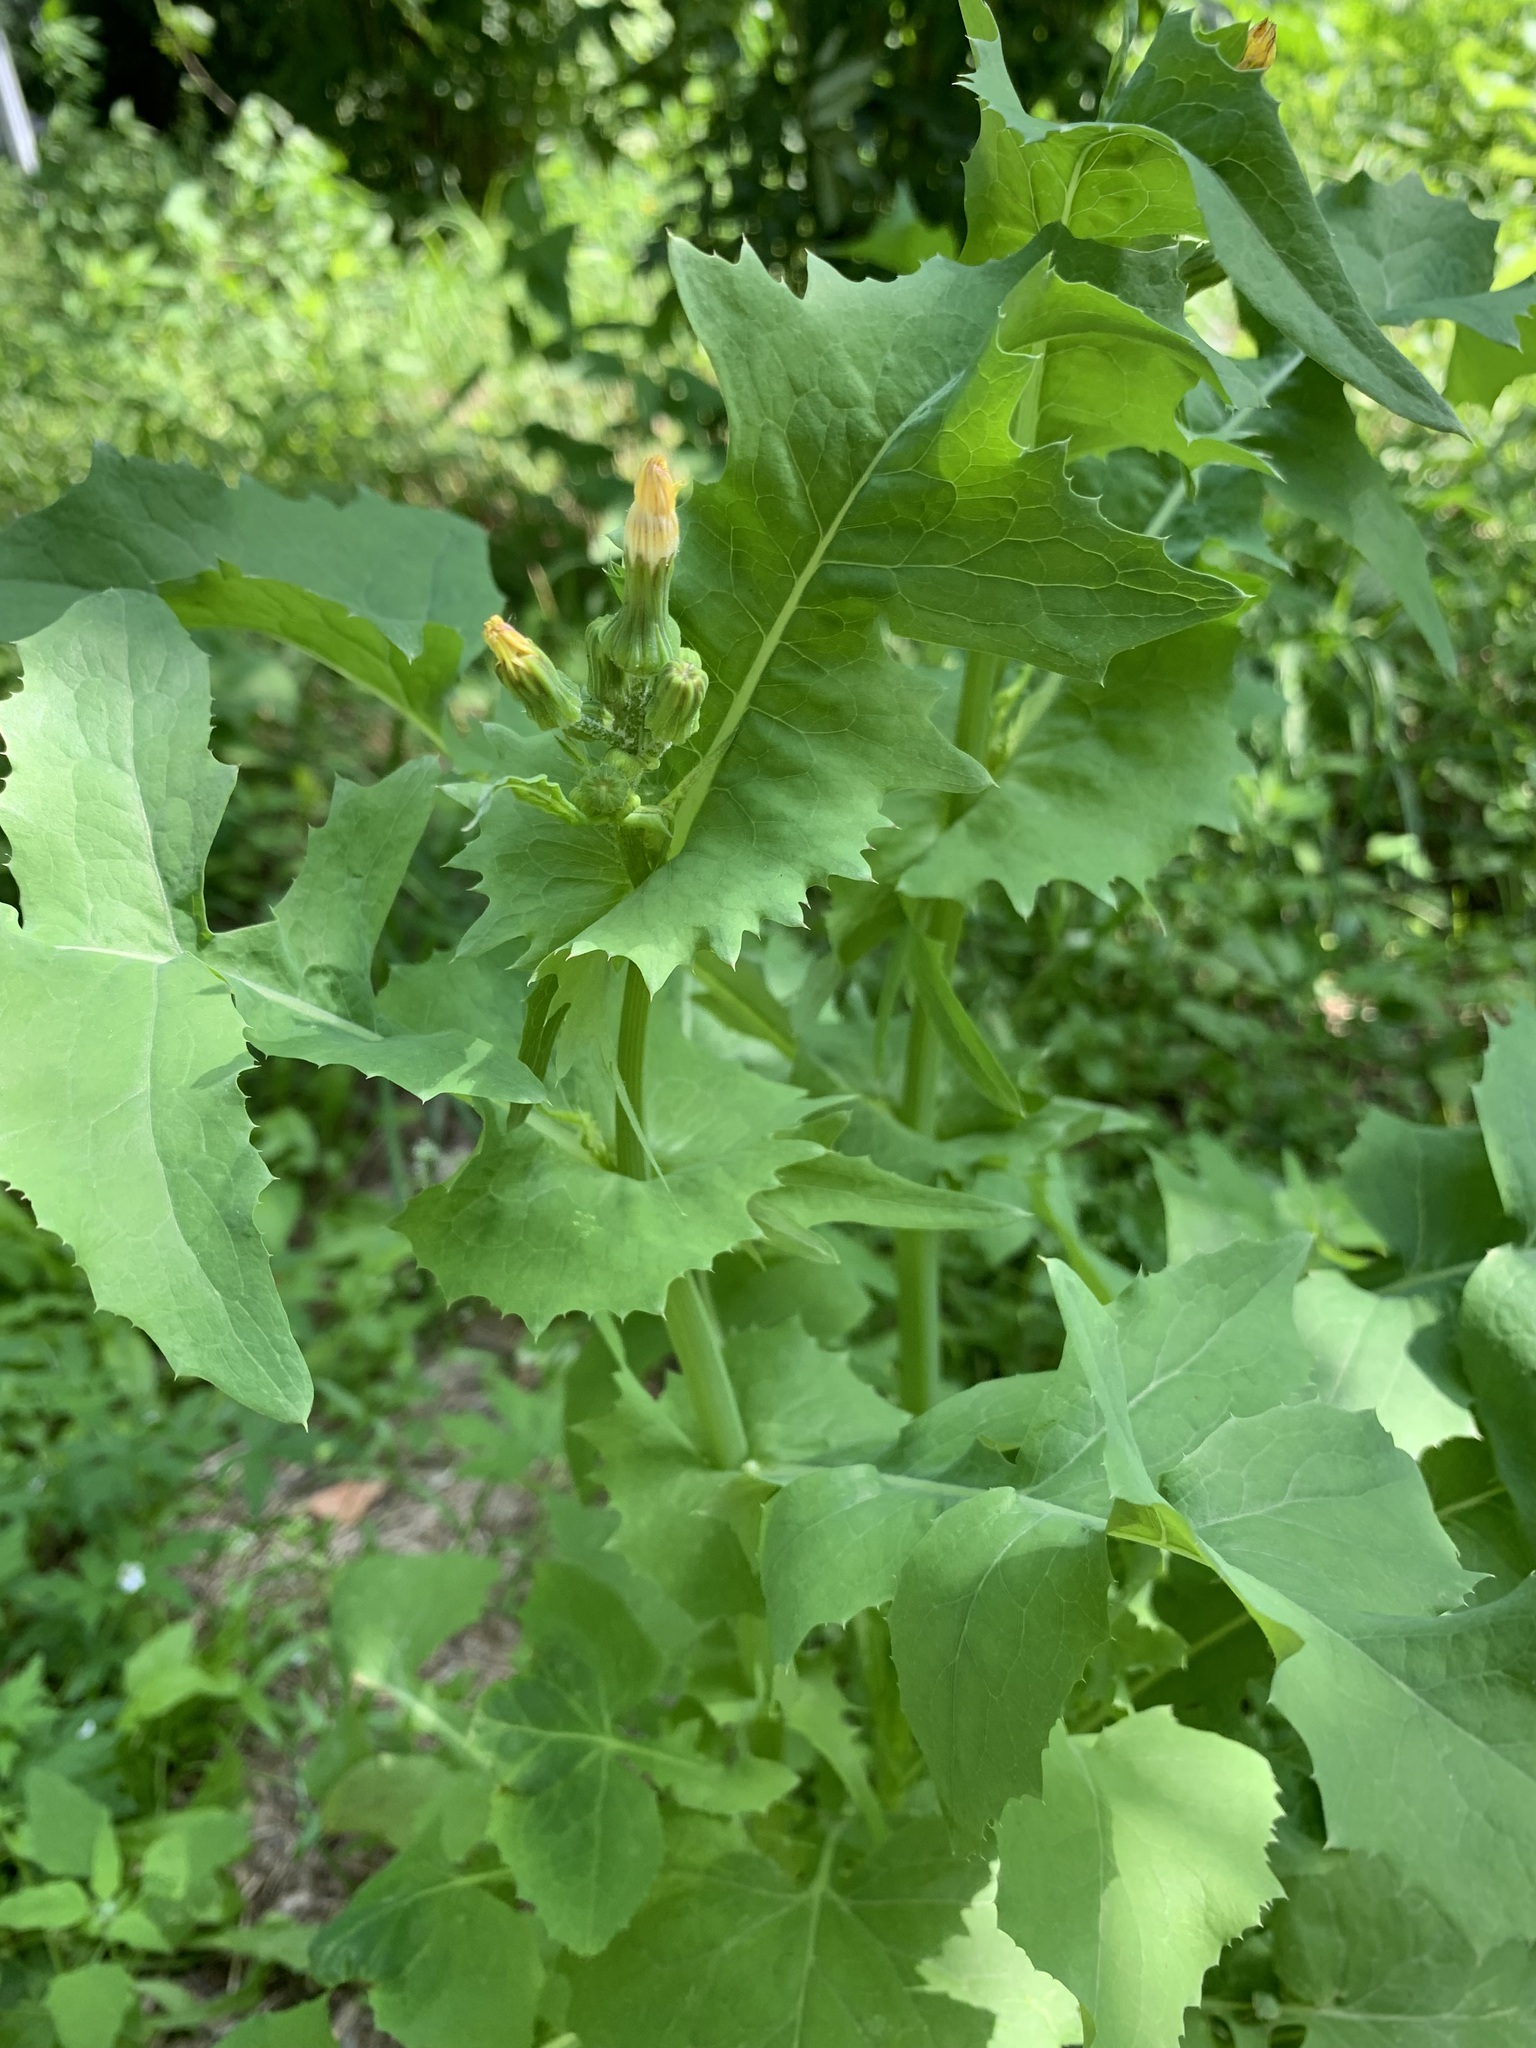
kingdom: Plantae
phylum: Tracheophyta
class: Magnoliopsida
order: Asterales
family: Asteraceae
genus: Sonchus
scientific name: Sonchus oleraceus
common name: Common sowthistle
